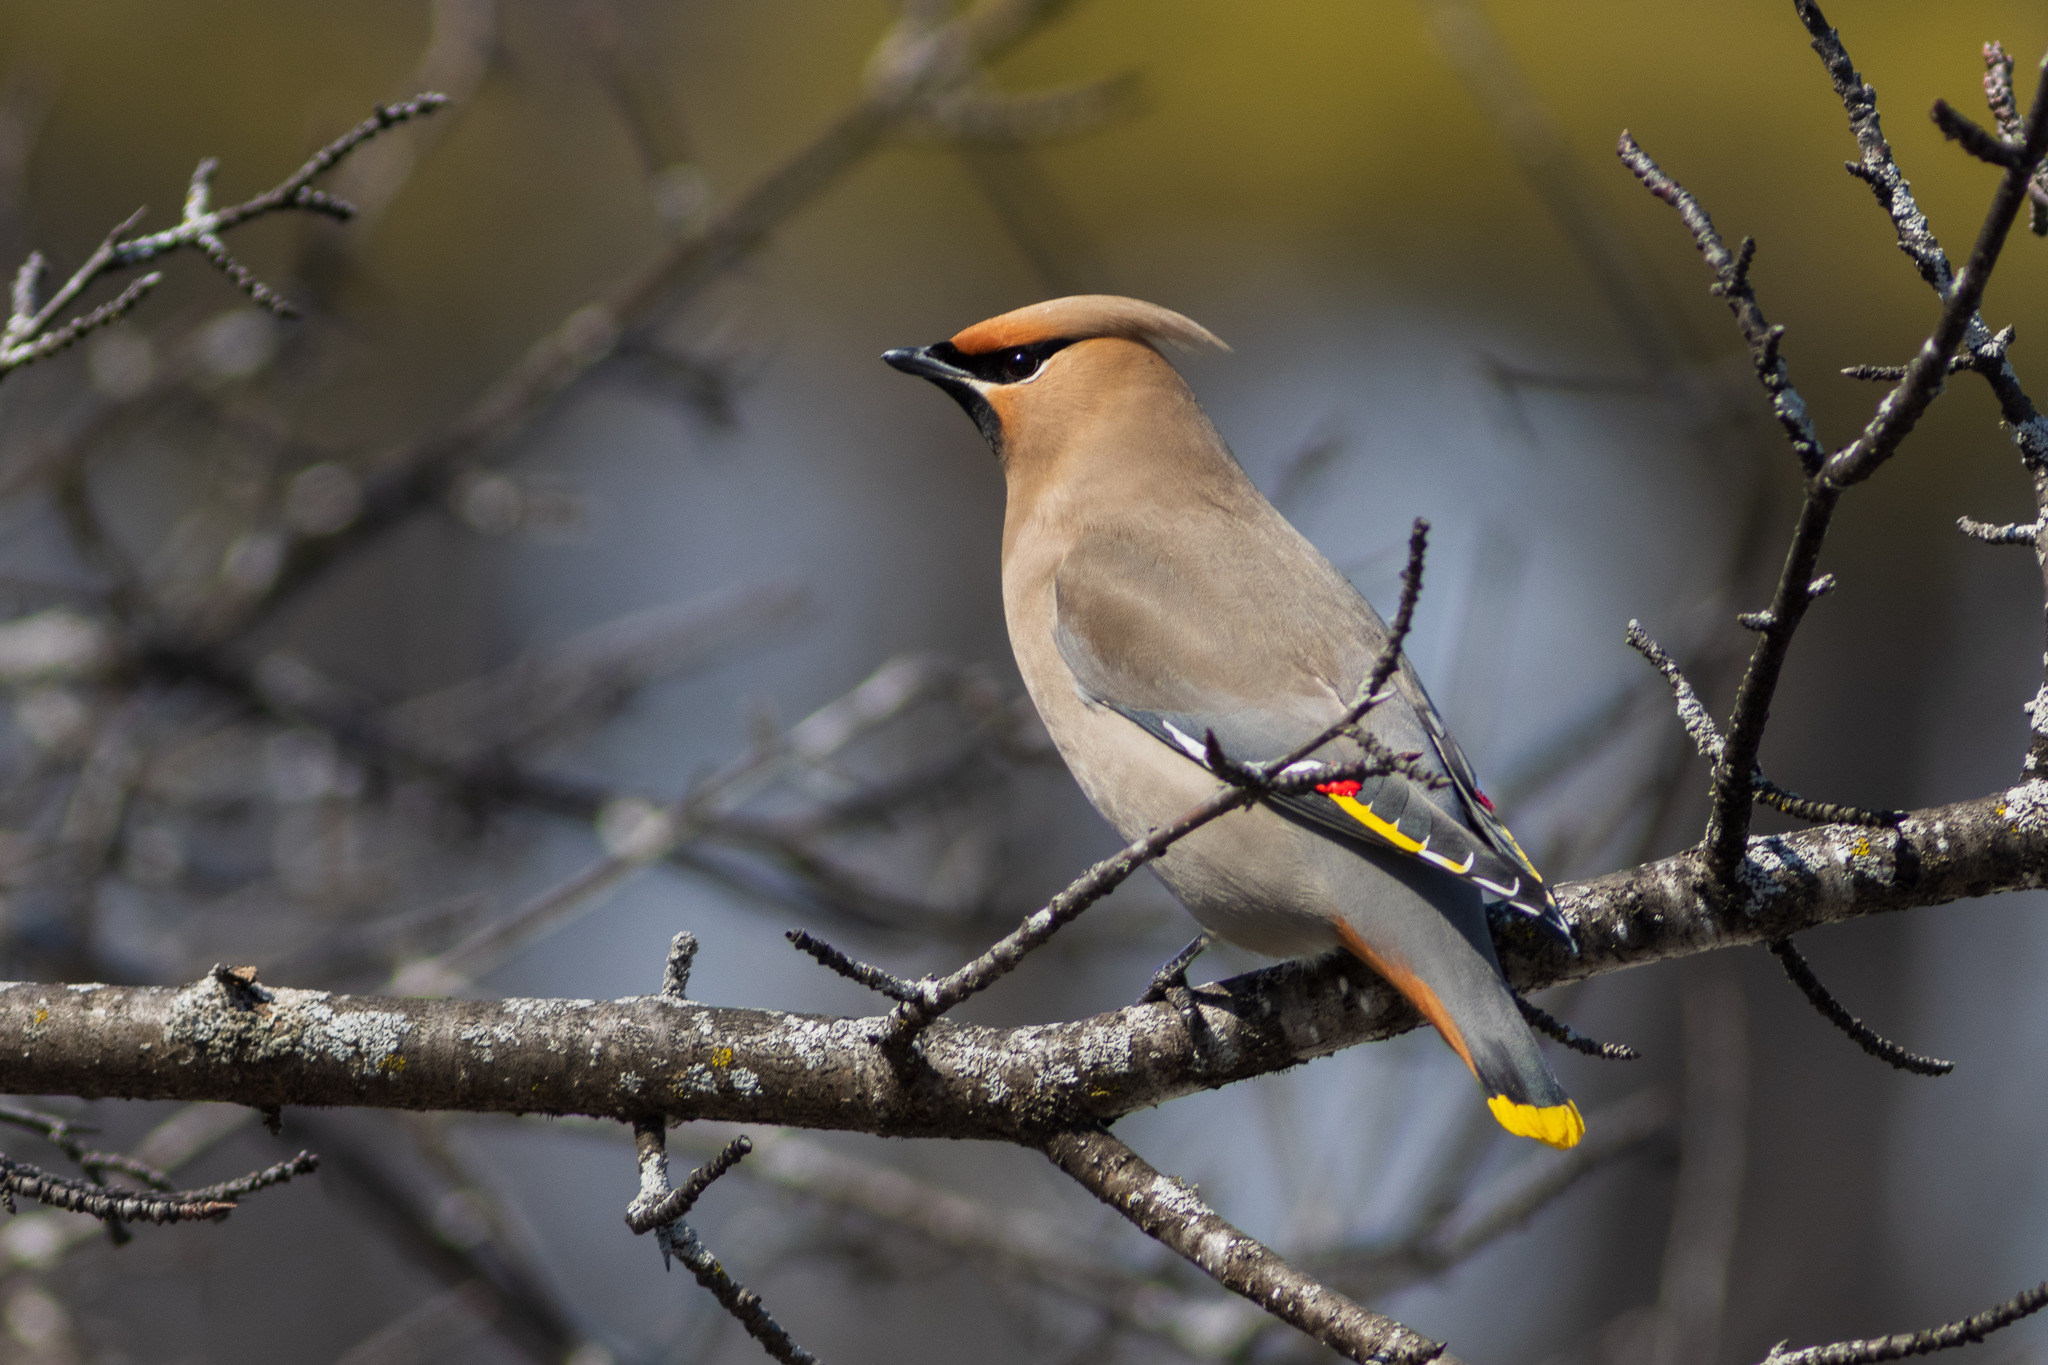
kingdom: Animalia
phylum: Chordata
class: Aves
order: Passeriformes
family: Bombycillidae
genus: Bombycilla
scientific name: Bombycilla garrulus
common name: Bohemian waxwing
